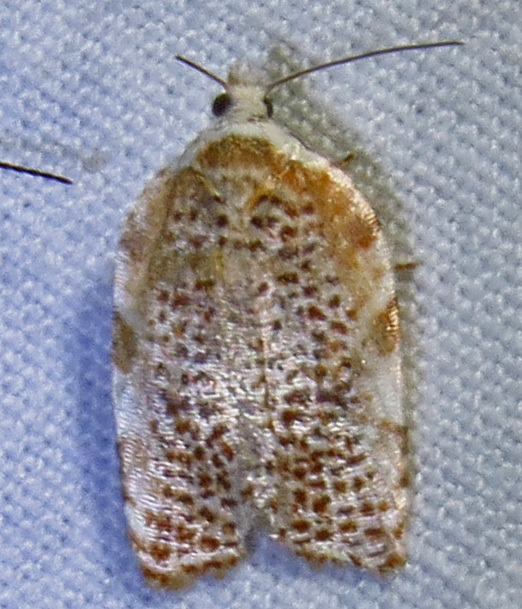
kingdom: Animalia
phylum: Arthropoda
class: Insecta
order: Lepidoptera
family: Tortricidae
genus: Acleris
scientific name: Acleris cervinana
